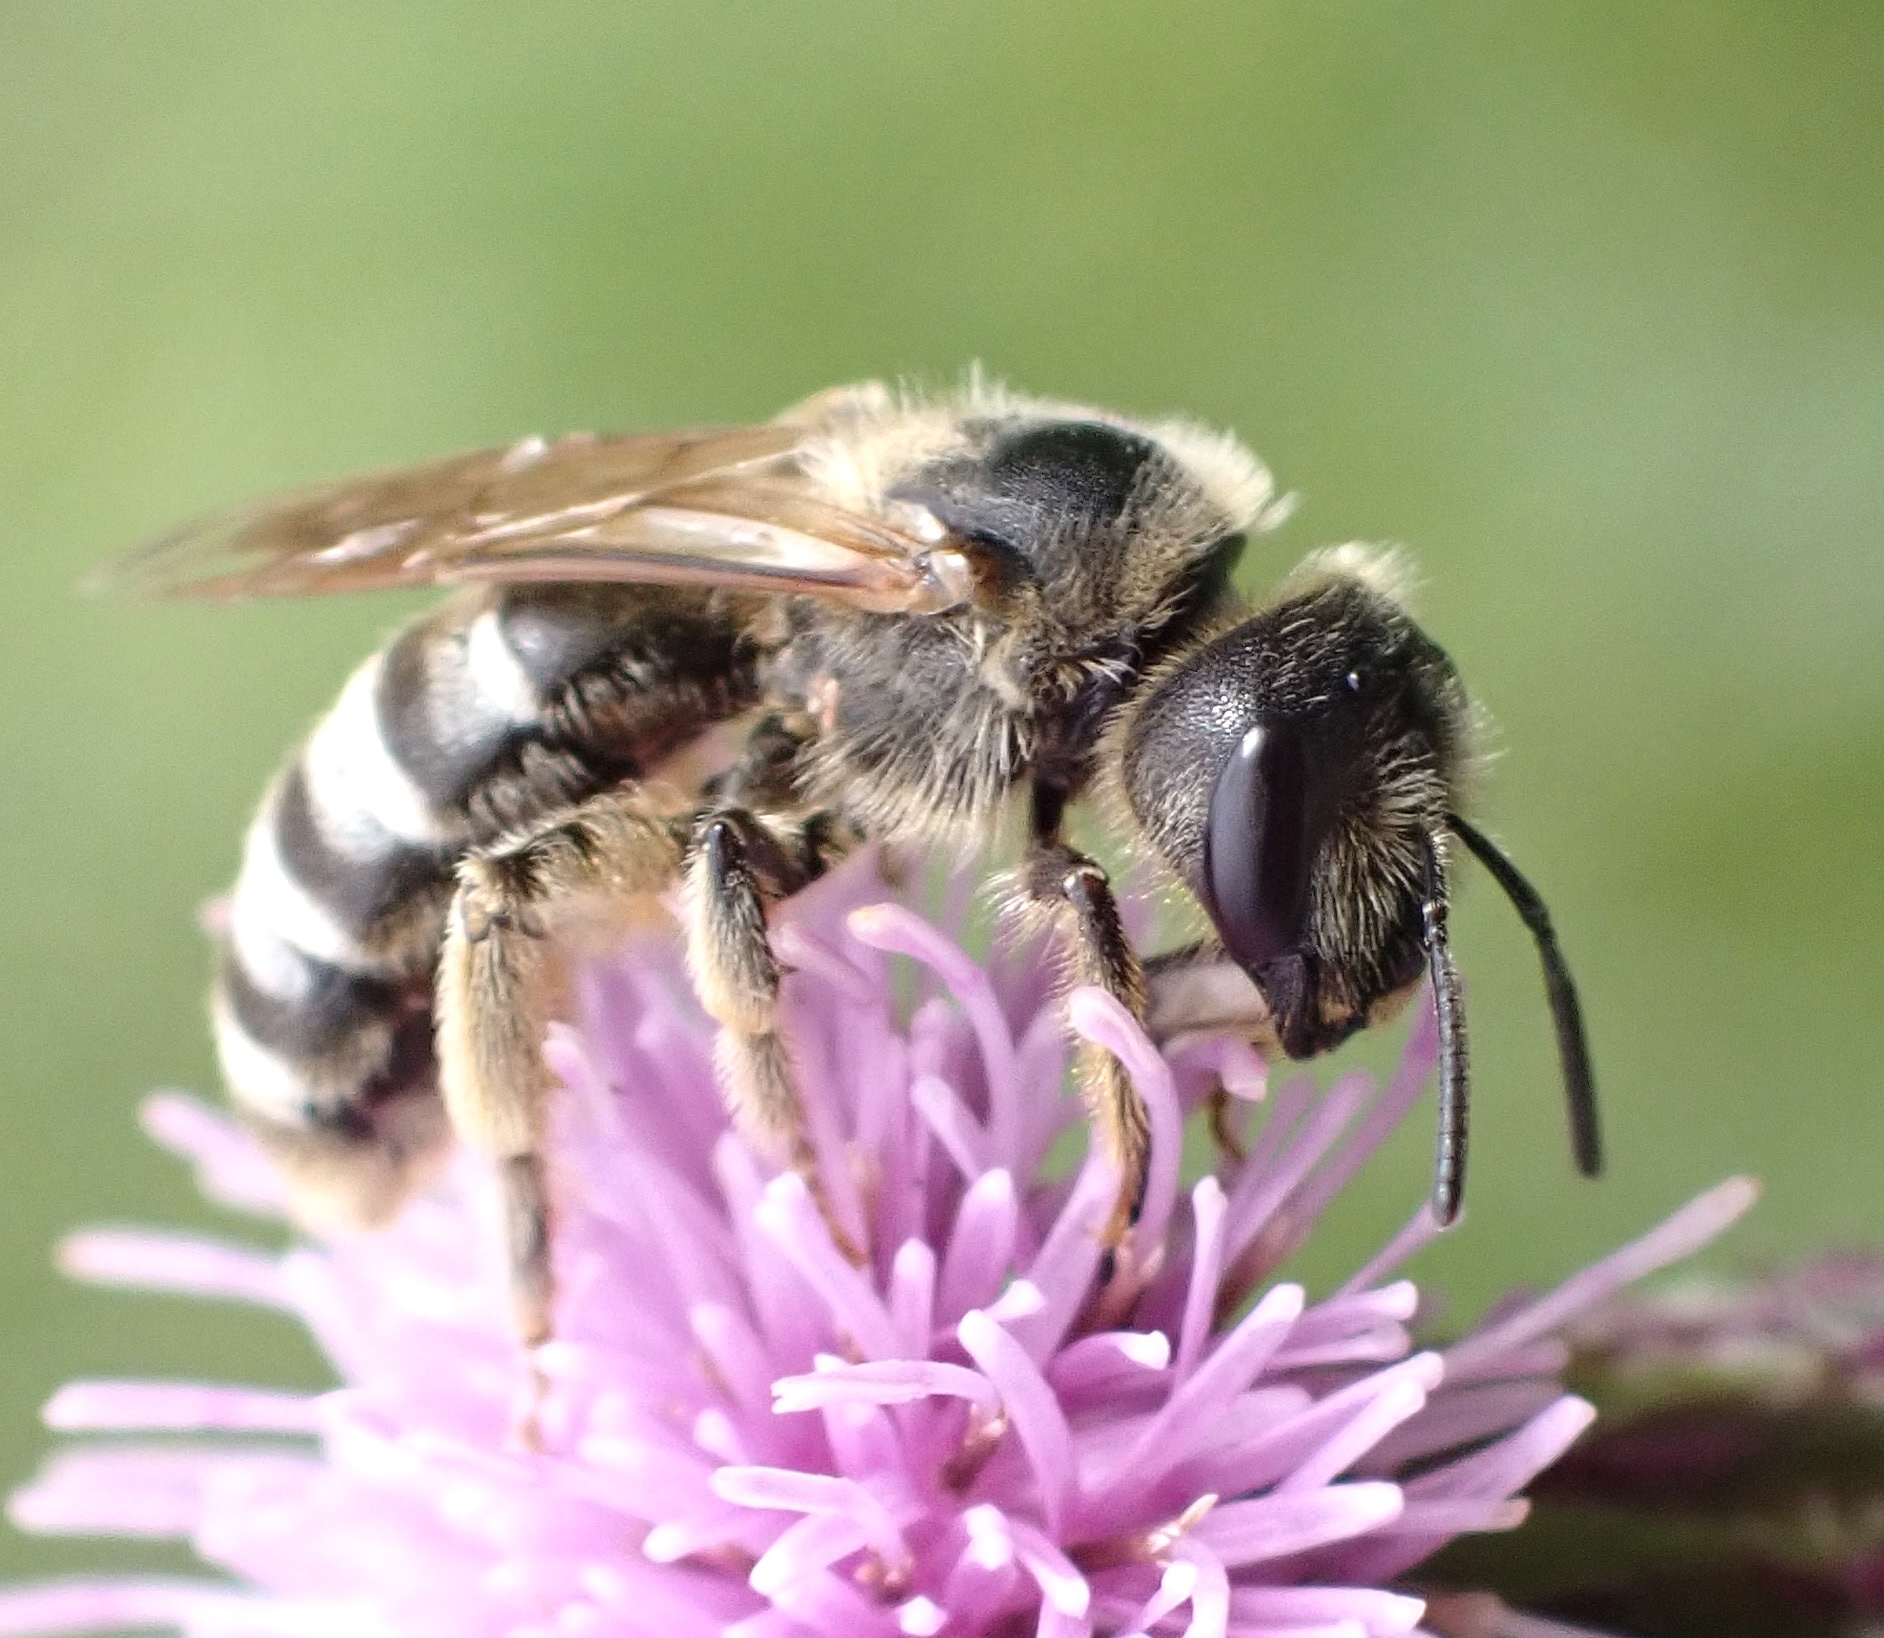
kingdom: Animalia
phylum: Arthropoda
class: Insecta
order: Hymenoptera
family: Halictidae
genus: Halictus
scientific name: Halictus scabiosae
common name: Great banded furrow bee
